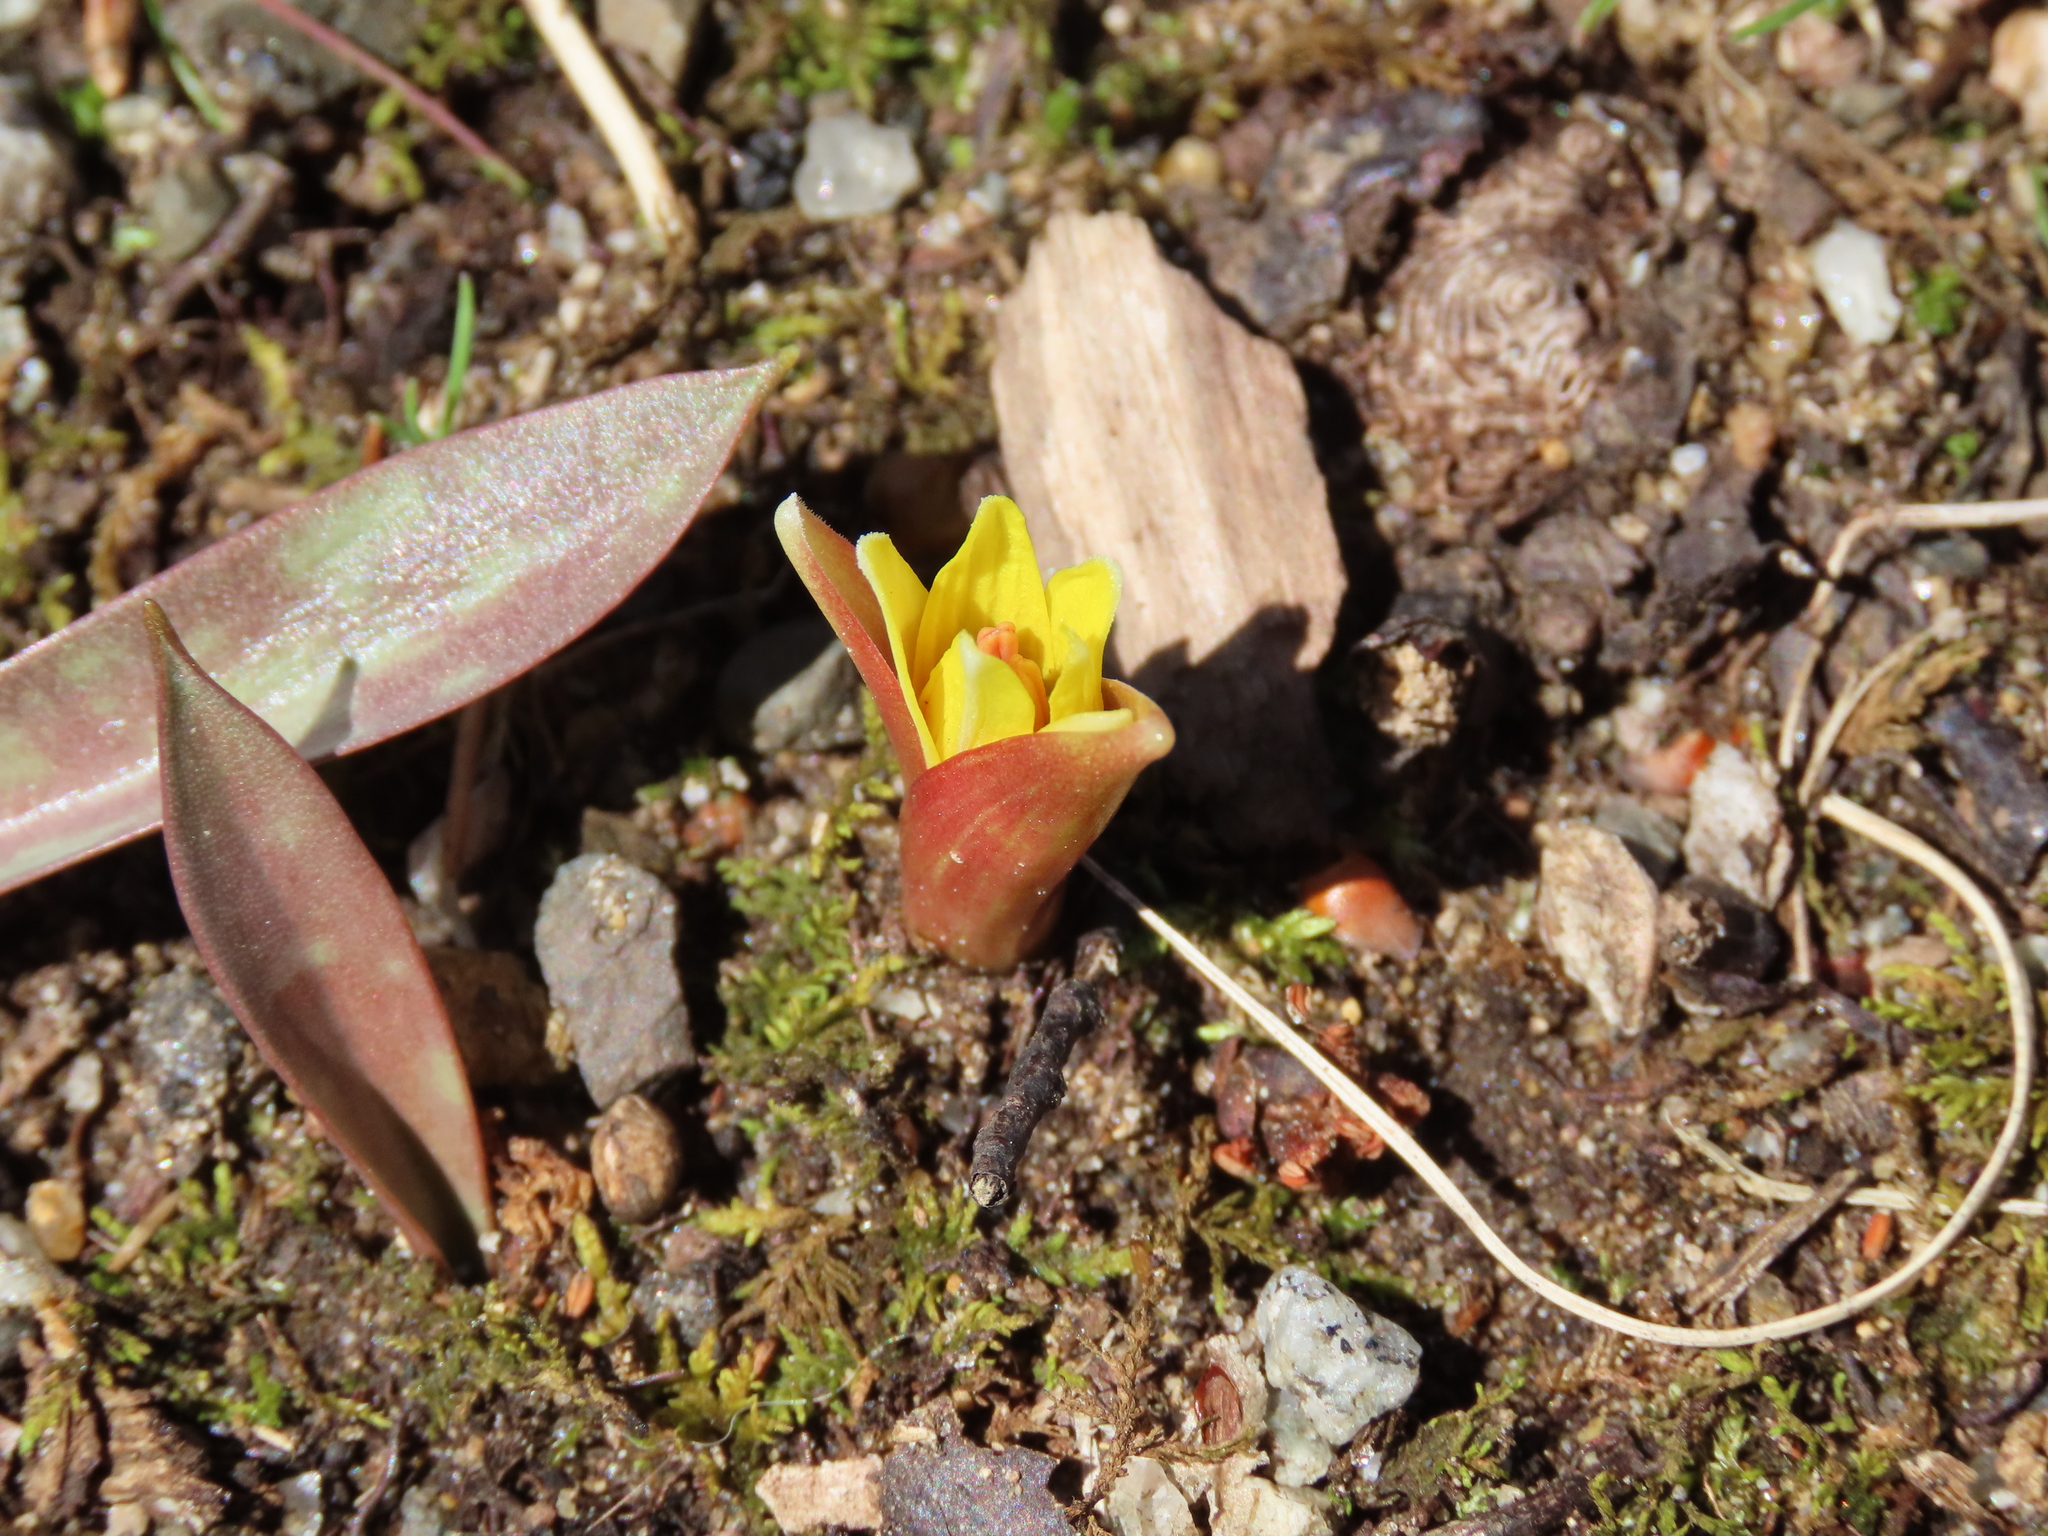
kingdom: Plantae
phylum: Tracheophyta
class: Liliopsida
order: Liliales
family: Liliaceae
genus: Erythronium
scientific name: Erythronium americanum
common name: Yellow adder's-tongue
